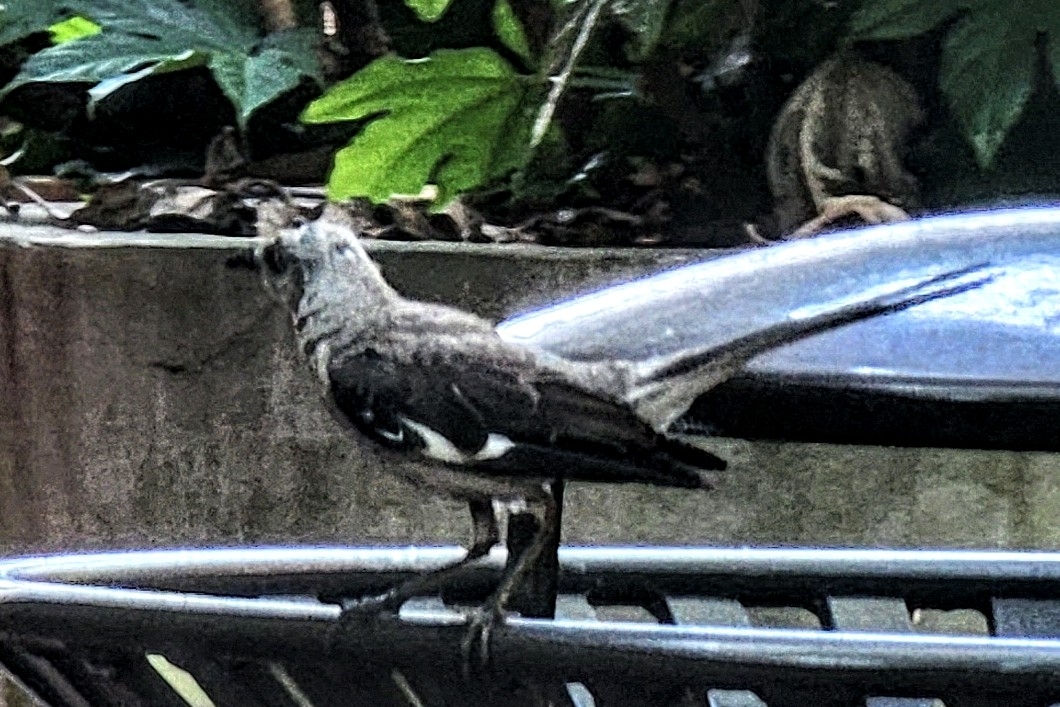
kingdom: Animalia
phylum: Chordata
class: Aves
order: Passeriformes
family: Mimidae
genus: Mimus
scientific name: Mimus polyglottos
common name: Northern mockingbird
